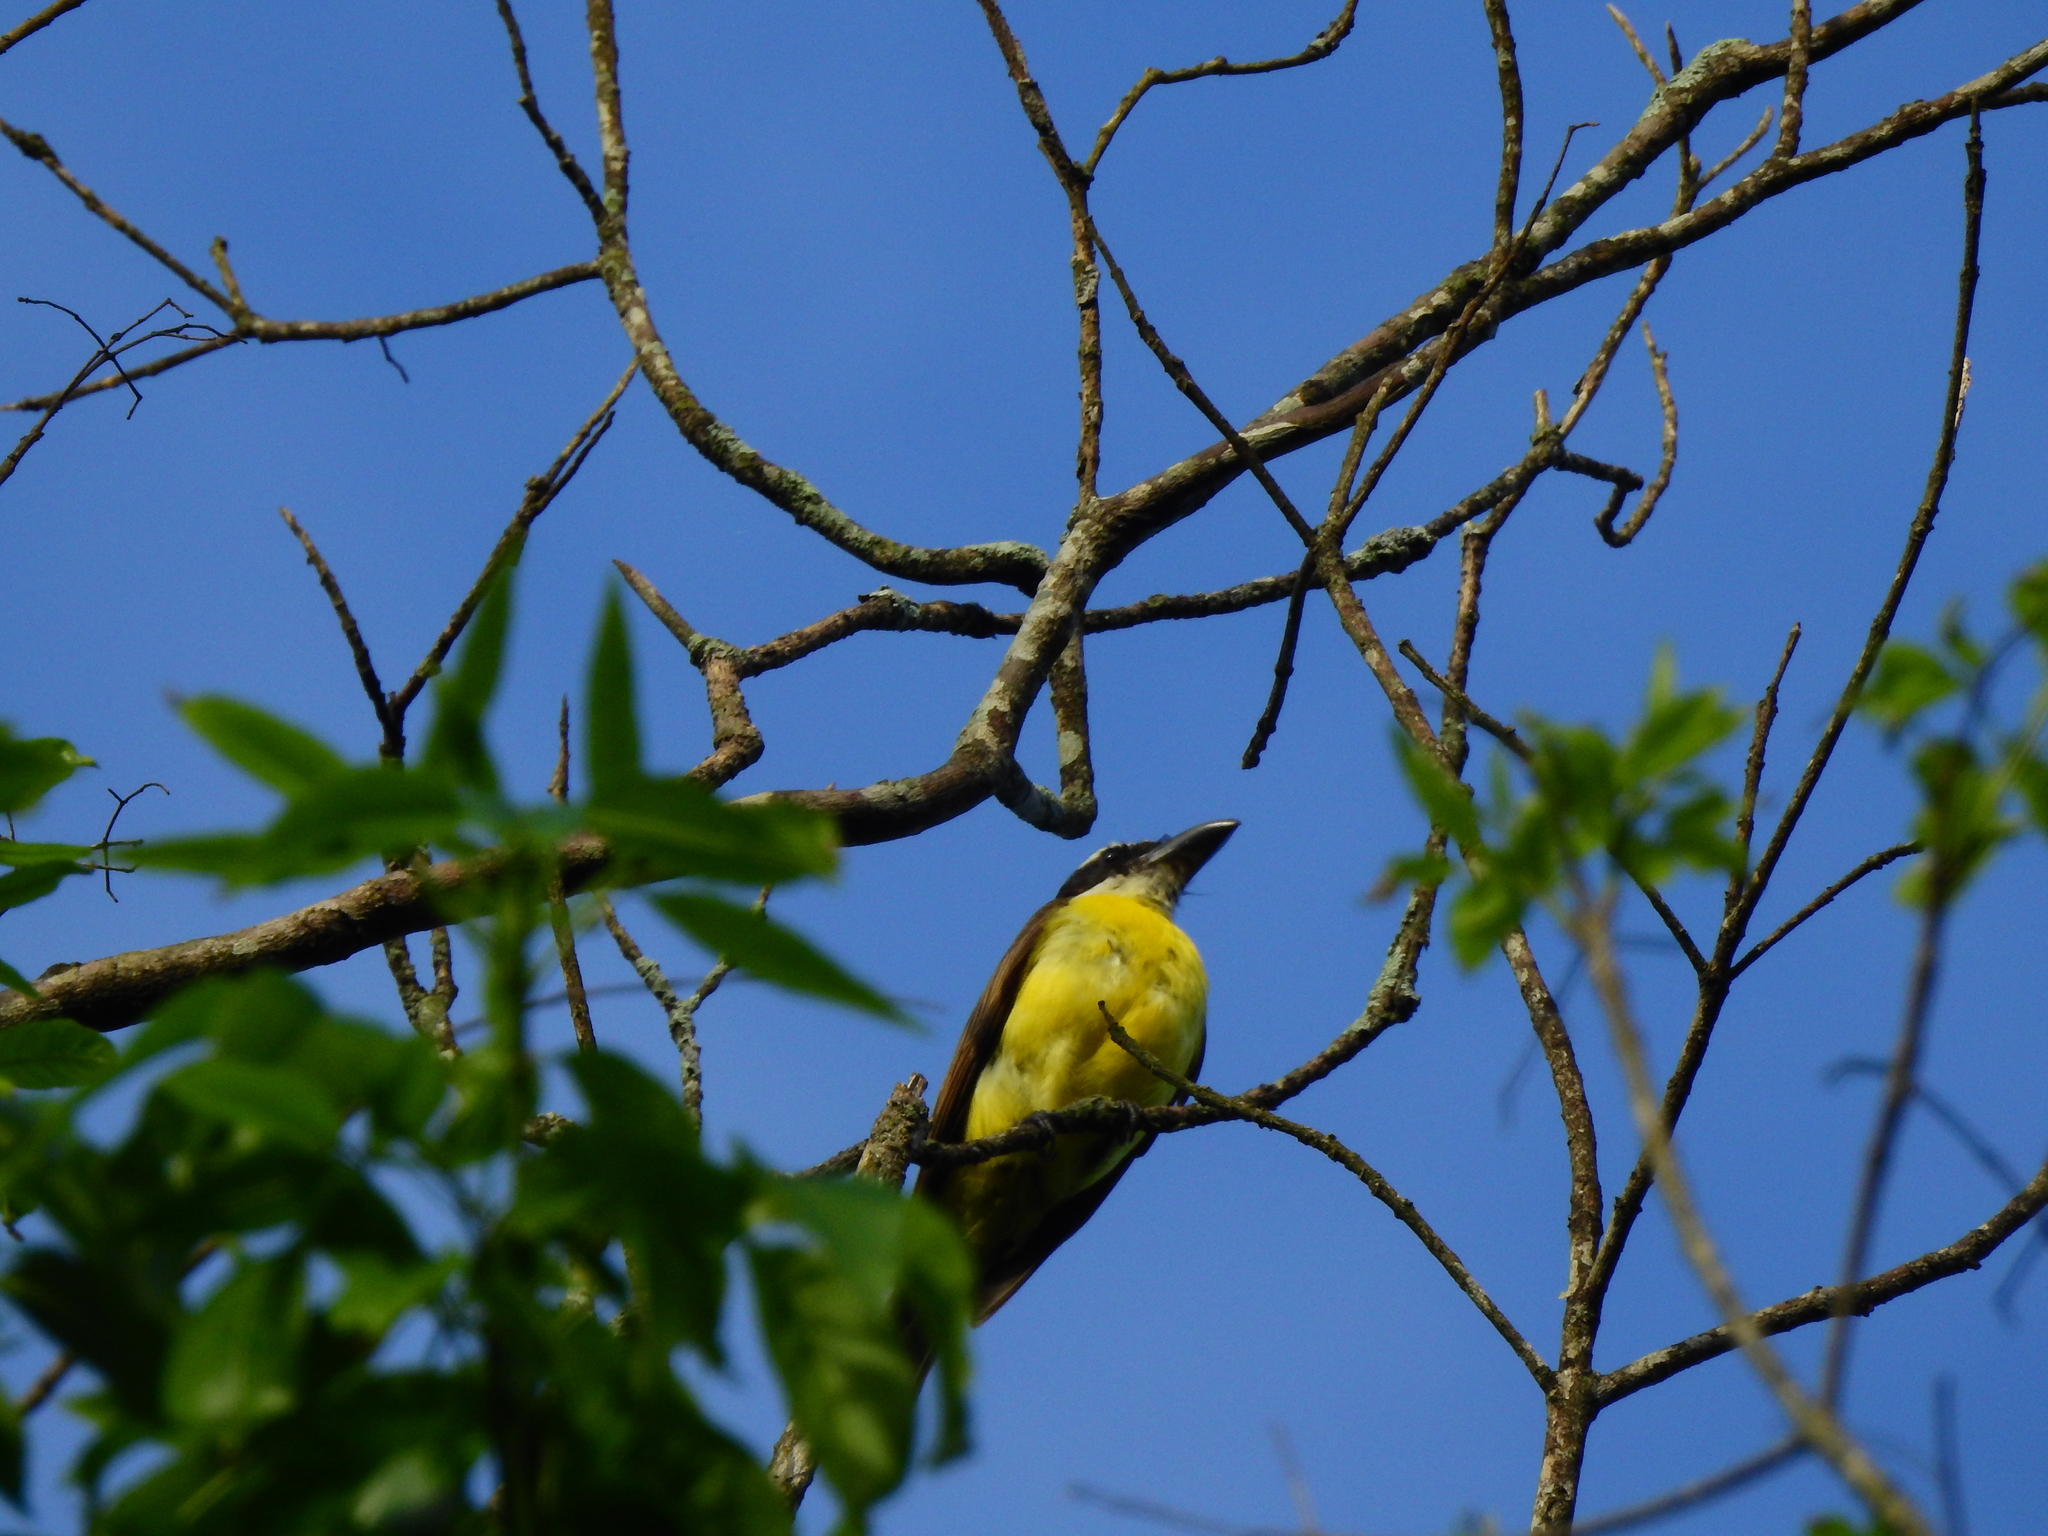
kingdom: Animalia
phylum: Chordata
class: Aves
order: Passeriformes
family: Tyrannidae
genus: Megarynchus
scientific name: Megarynchus pitangua
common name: Boat-billed flycatcher
